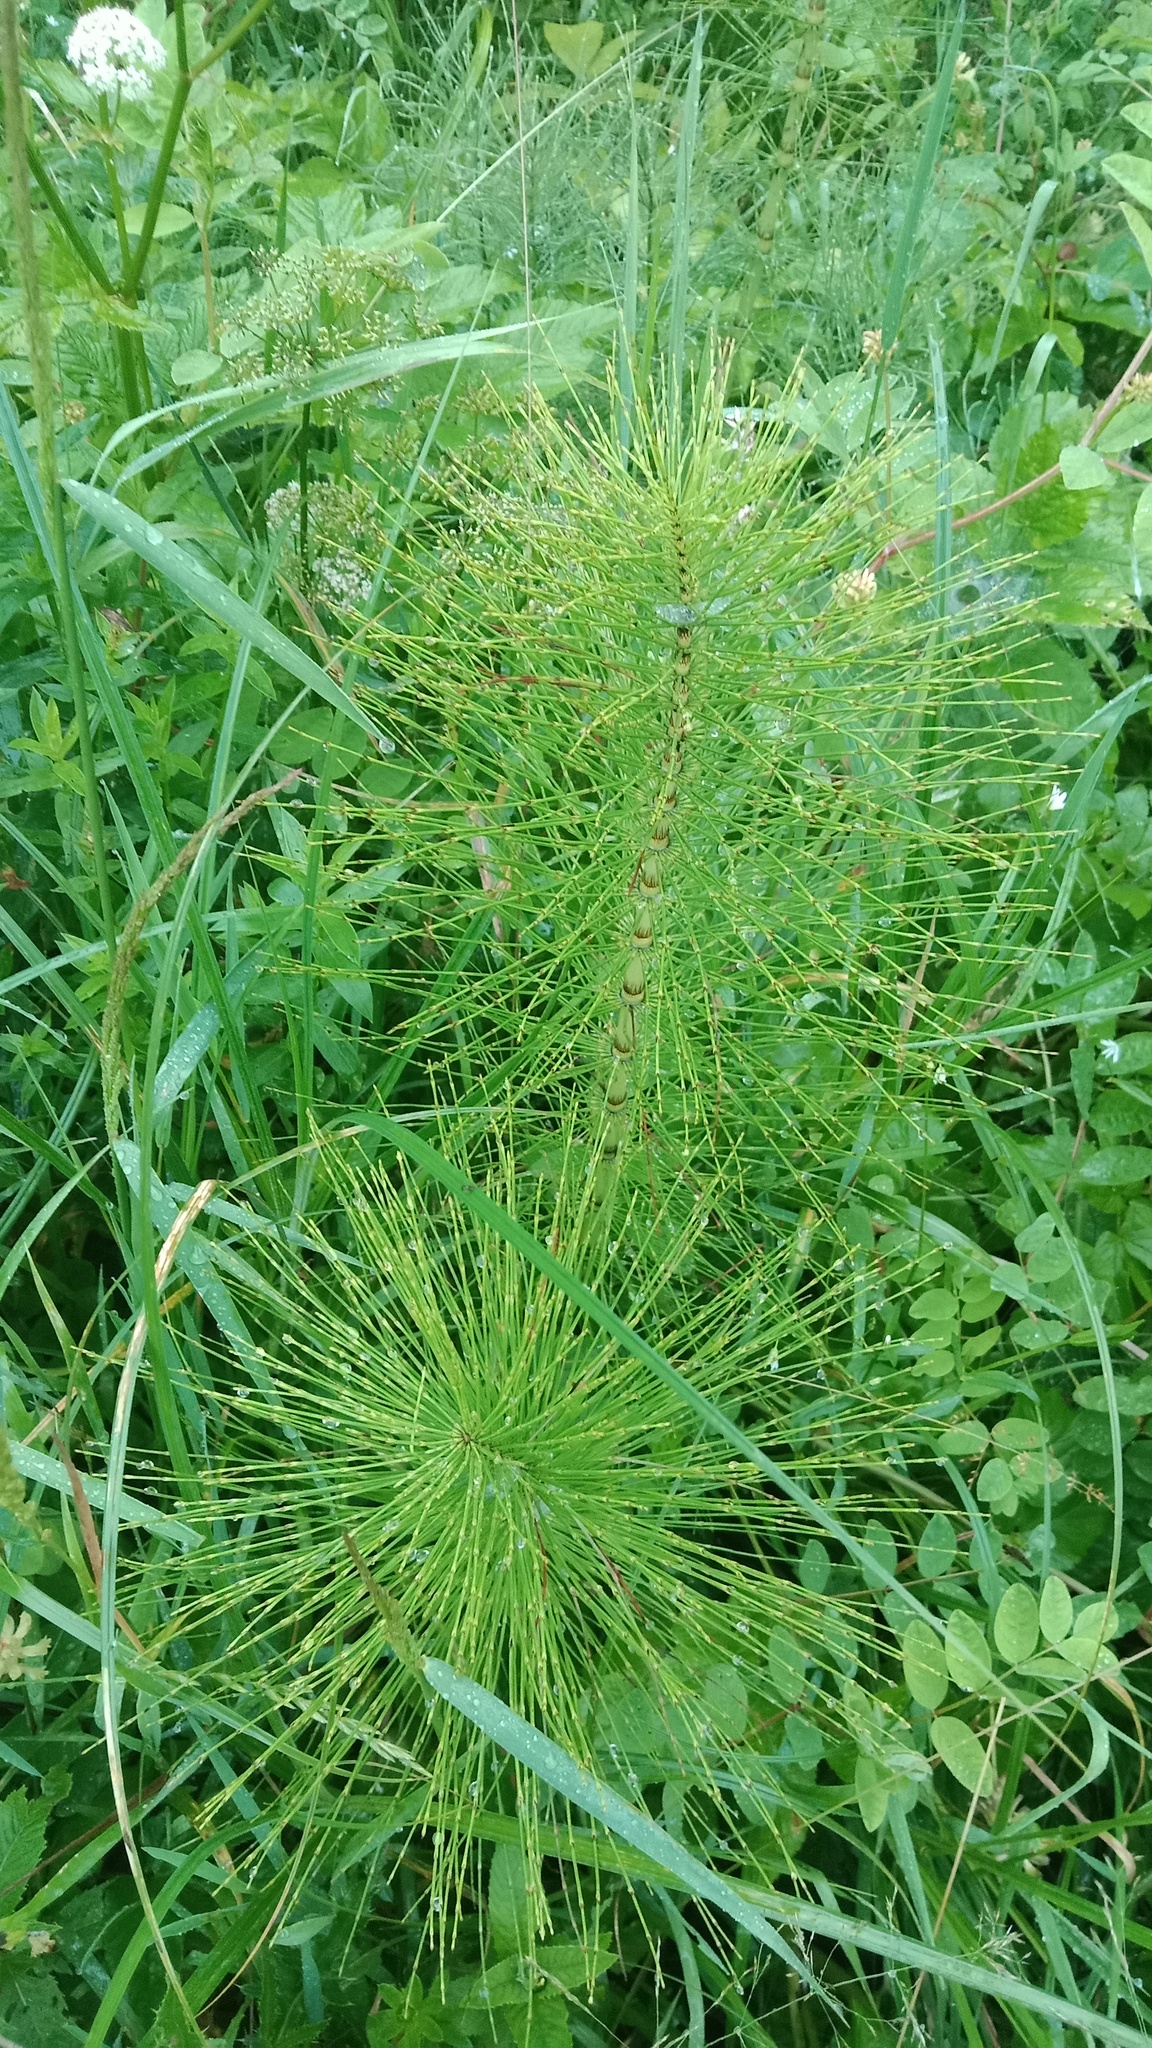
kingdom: Plantae
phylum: Tracheophyta
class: Polypodiopsida
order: Equisetales
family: Equisetaceae
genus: Equisetum
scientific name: Equisetum telmateia
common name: Great horsetail
